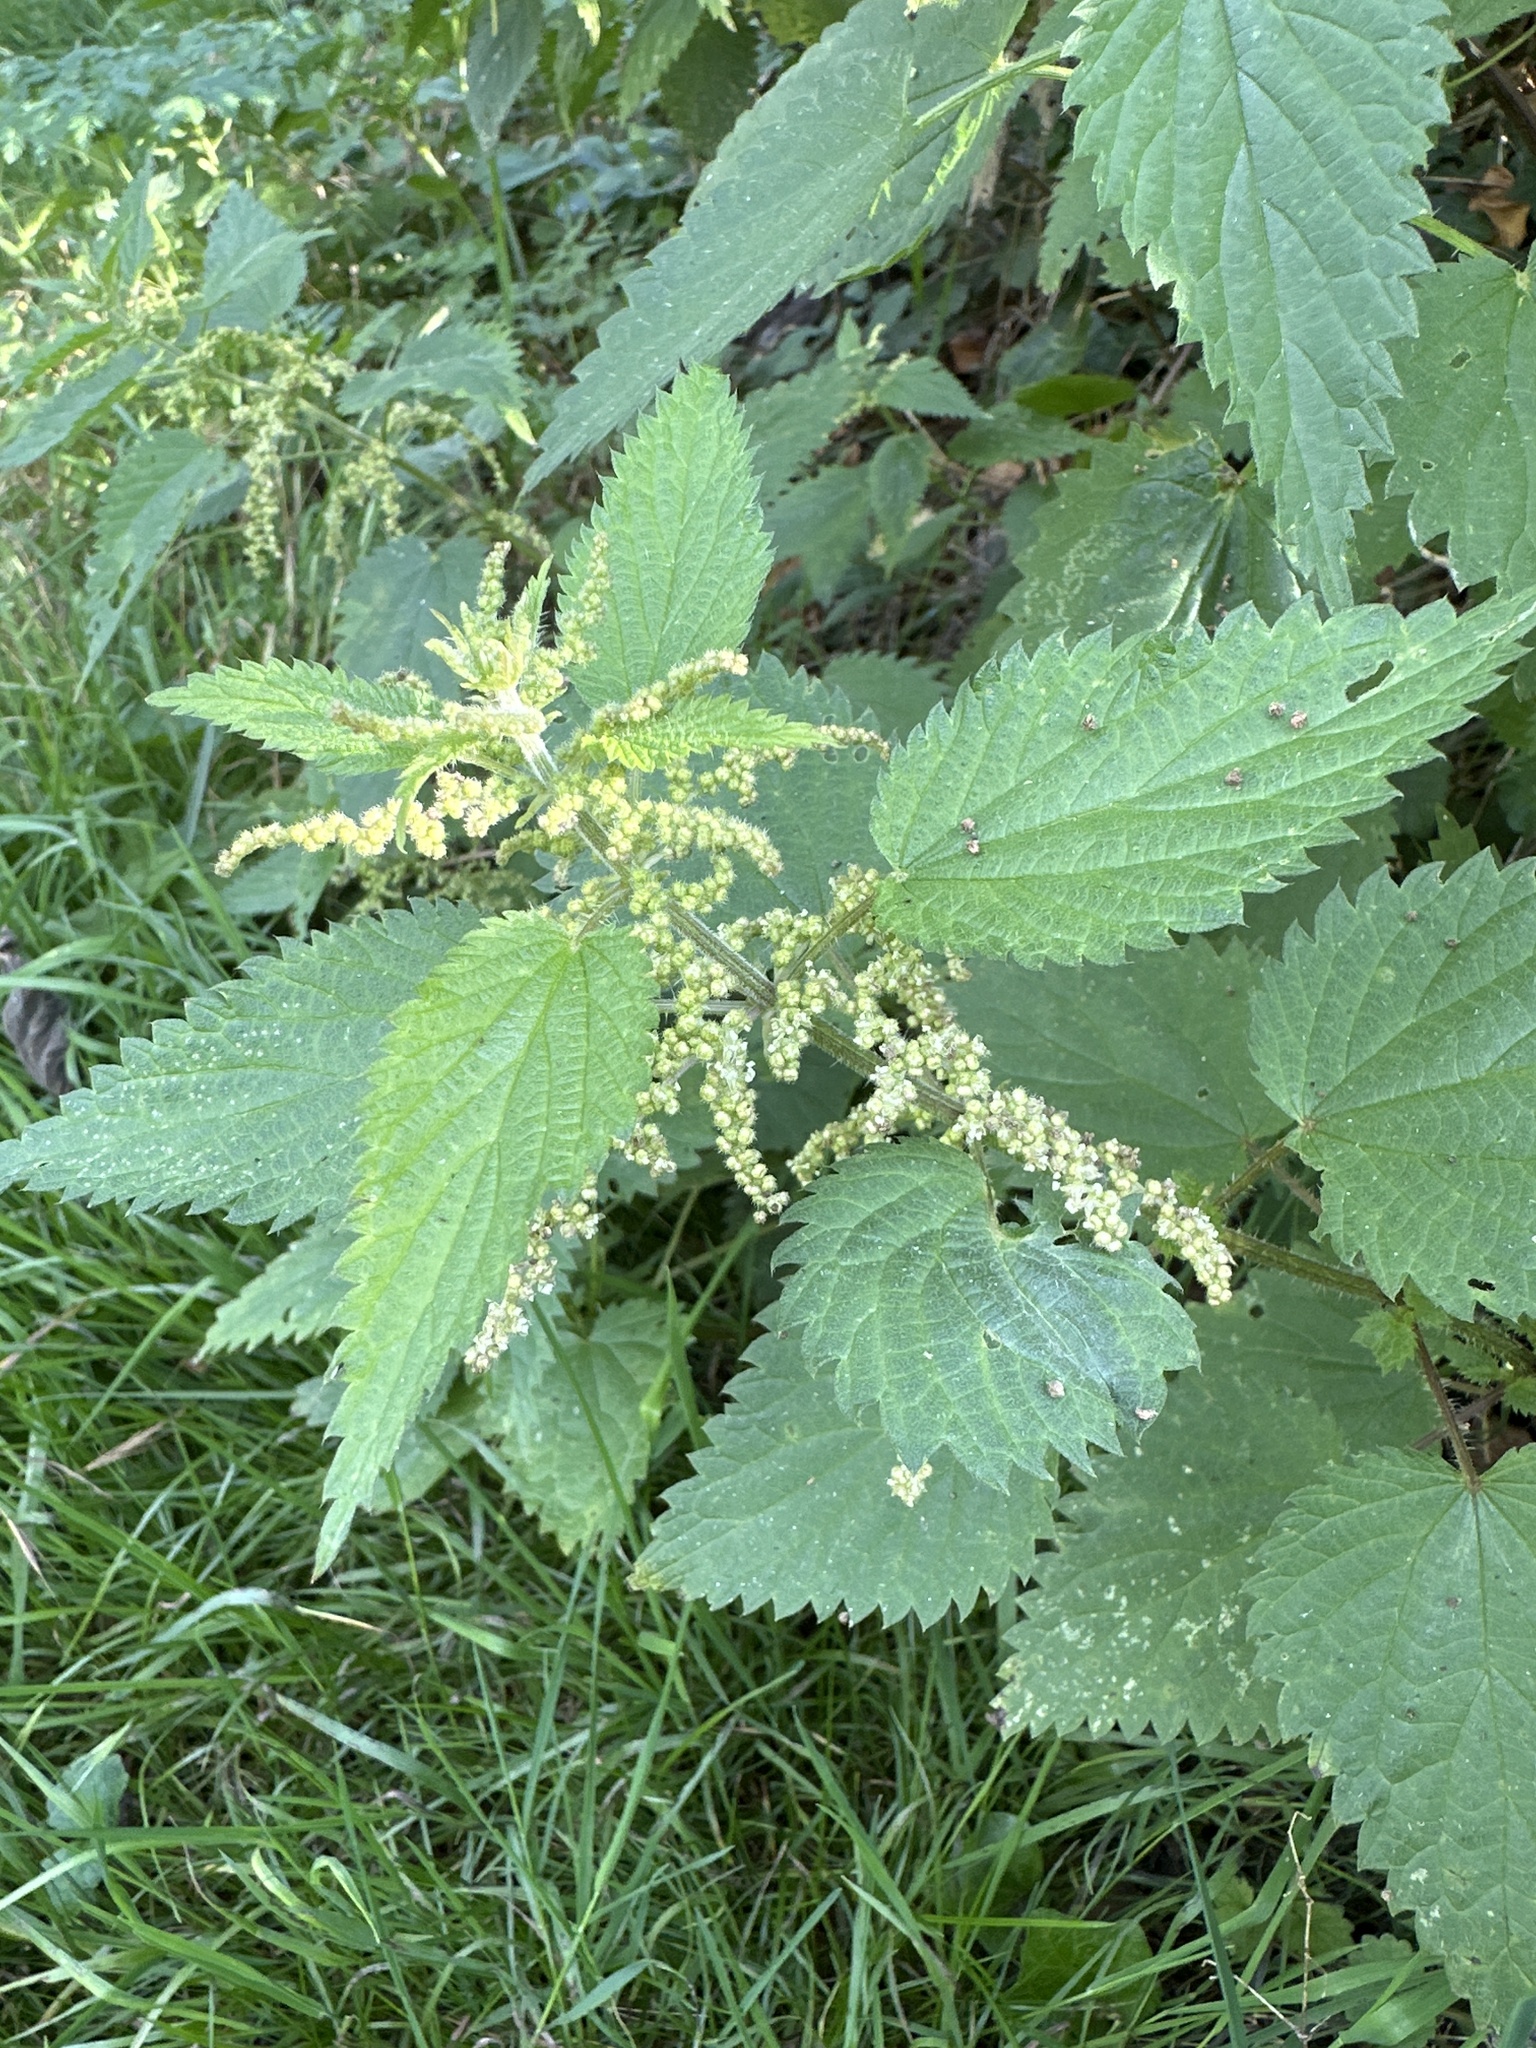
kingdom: Plantae
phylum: Tracheophyta
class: Magnoliopsida
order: Rosales
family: Urticaceae
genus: Urtica
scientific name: Urtica dioica
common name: Common nettle
